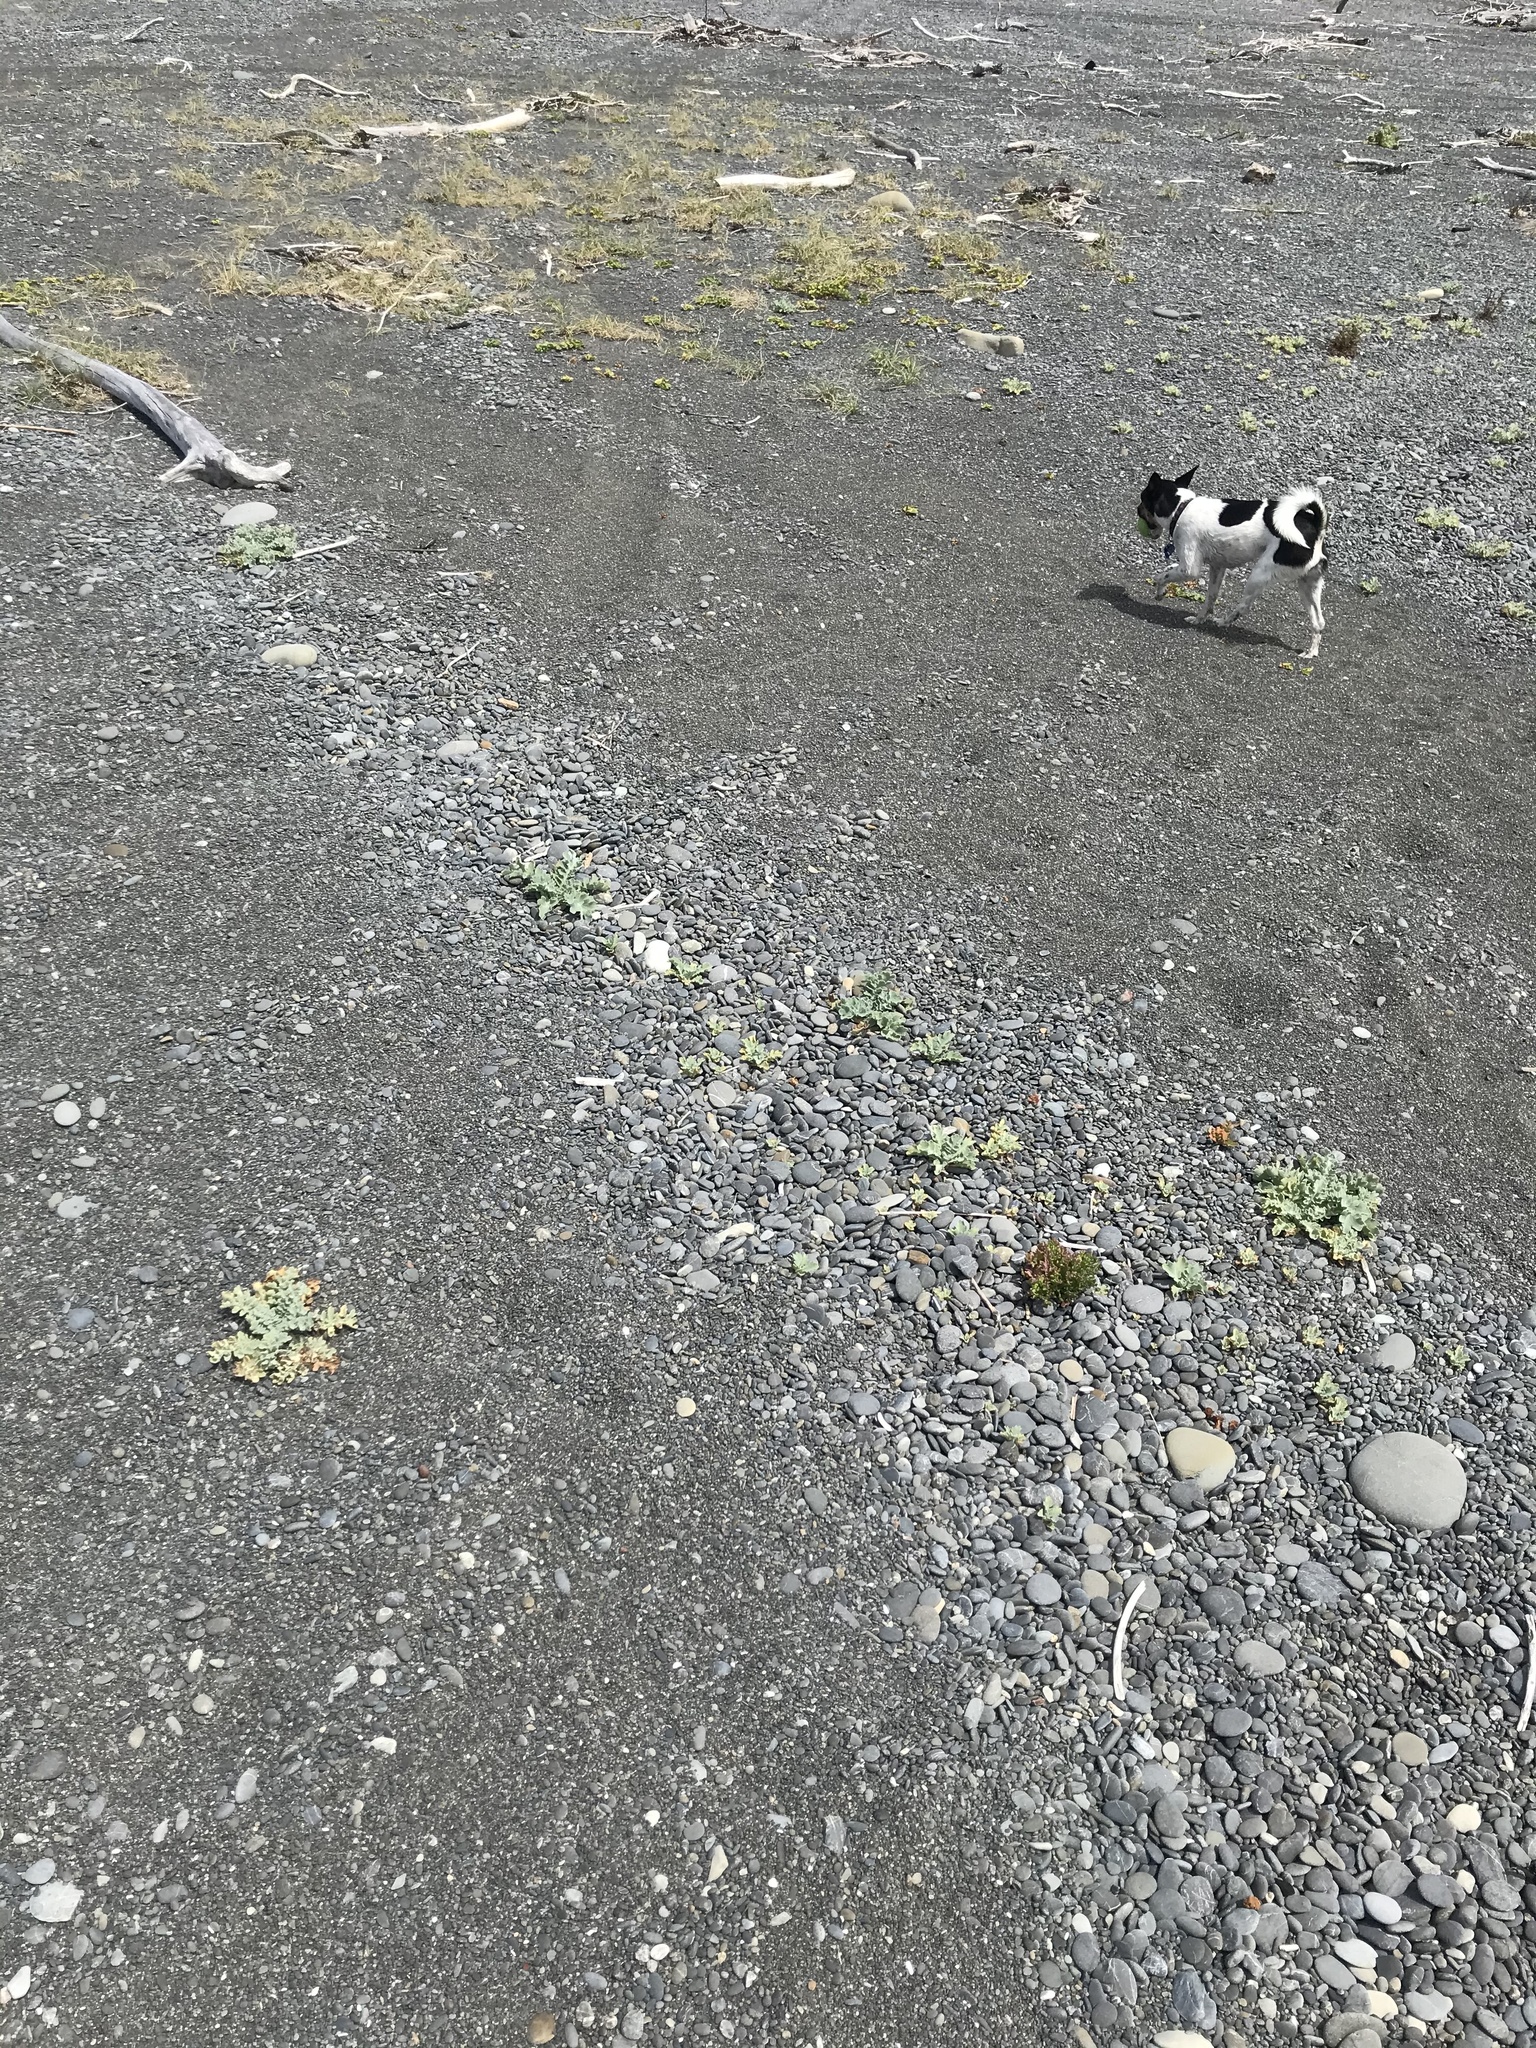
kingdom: Plantae
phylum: Tracheophyta
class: Magnoliopsida
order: Ranunculales
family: Papaveraceae
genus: Glaucium
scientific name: Glaucium flavum
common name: Yellow horned-poppy
